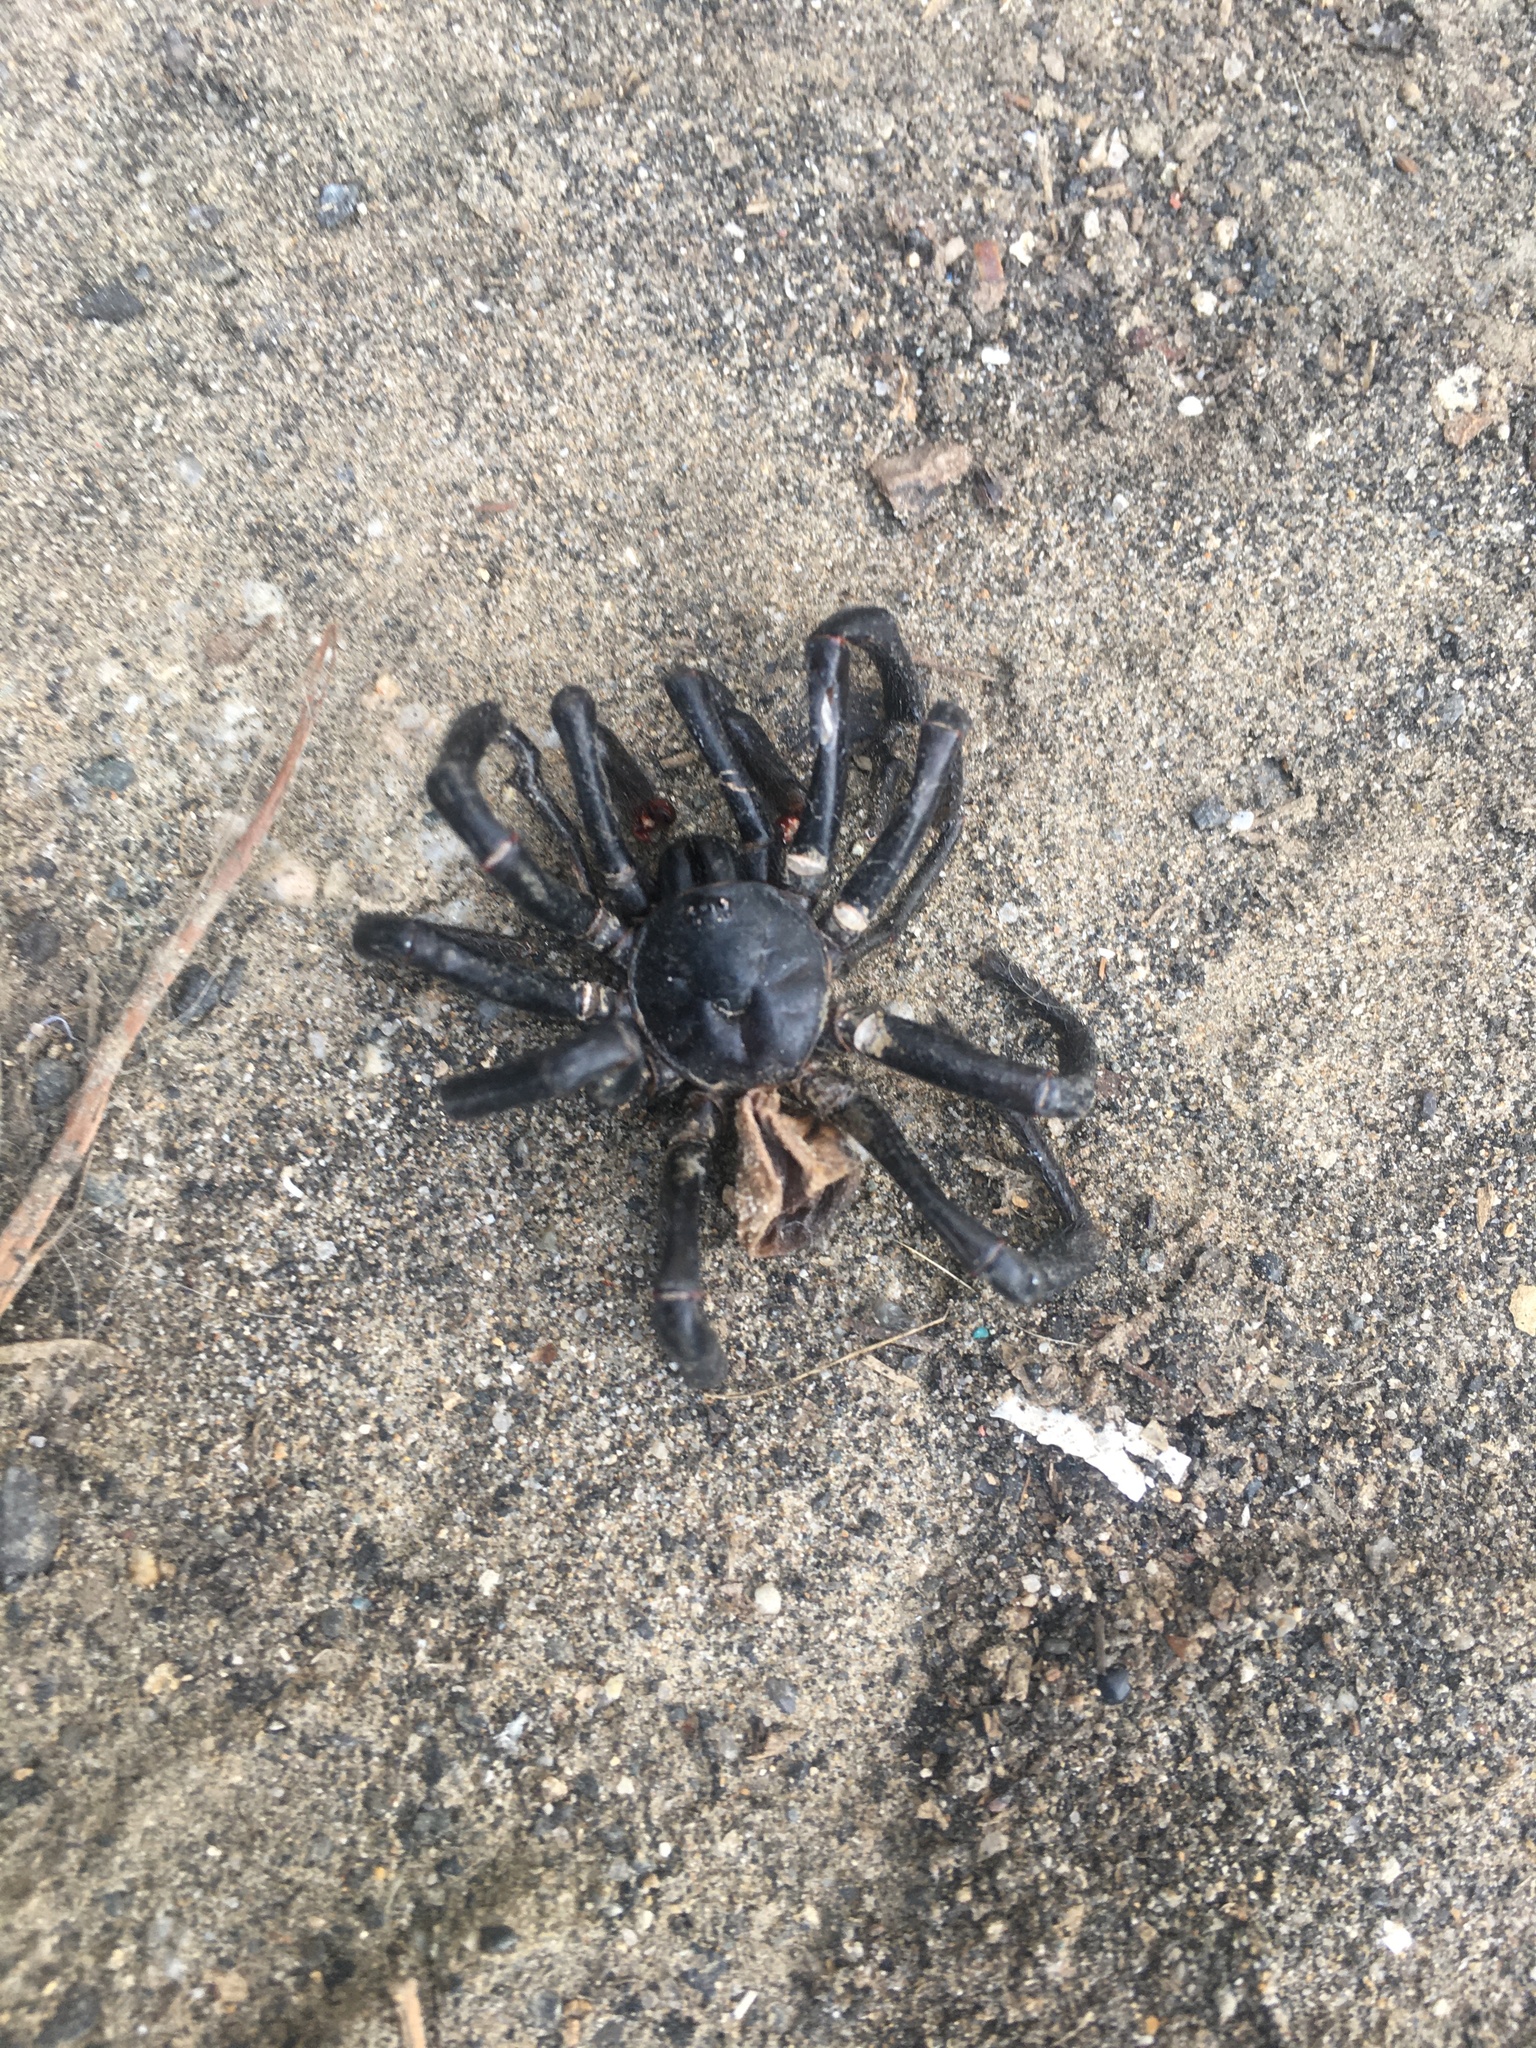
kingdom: Animalia
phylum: Arthropoda
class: Arachnida
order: Araneae
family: Halonoproctidae
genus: Bothriocyrtum
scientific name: Bothriocyrtum californicum
